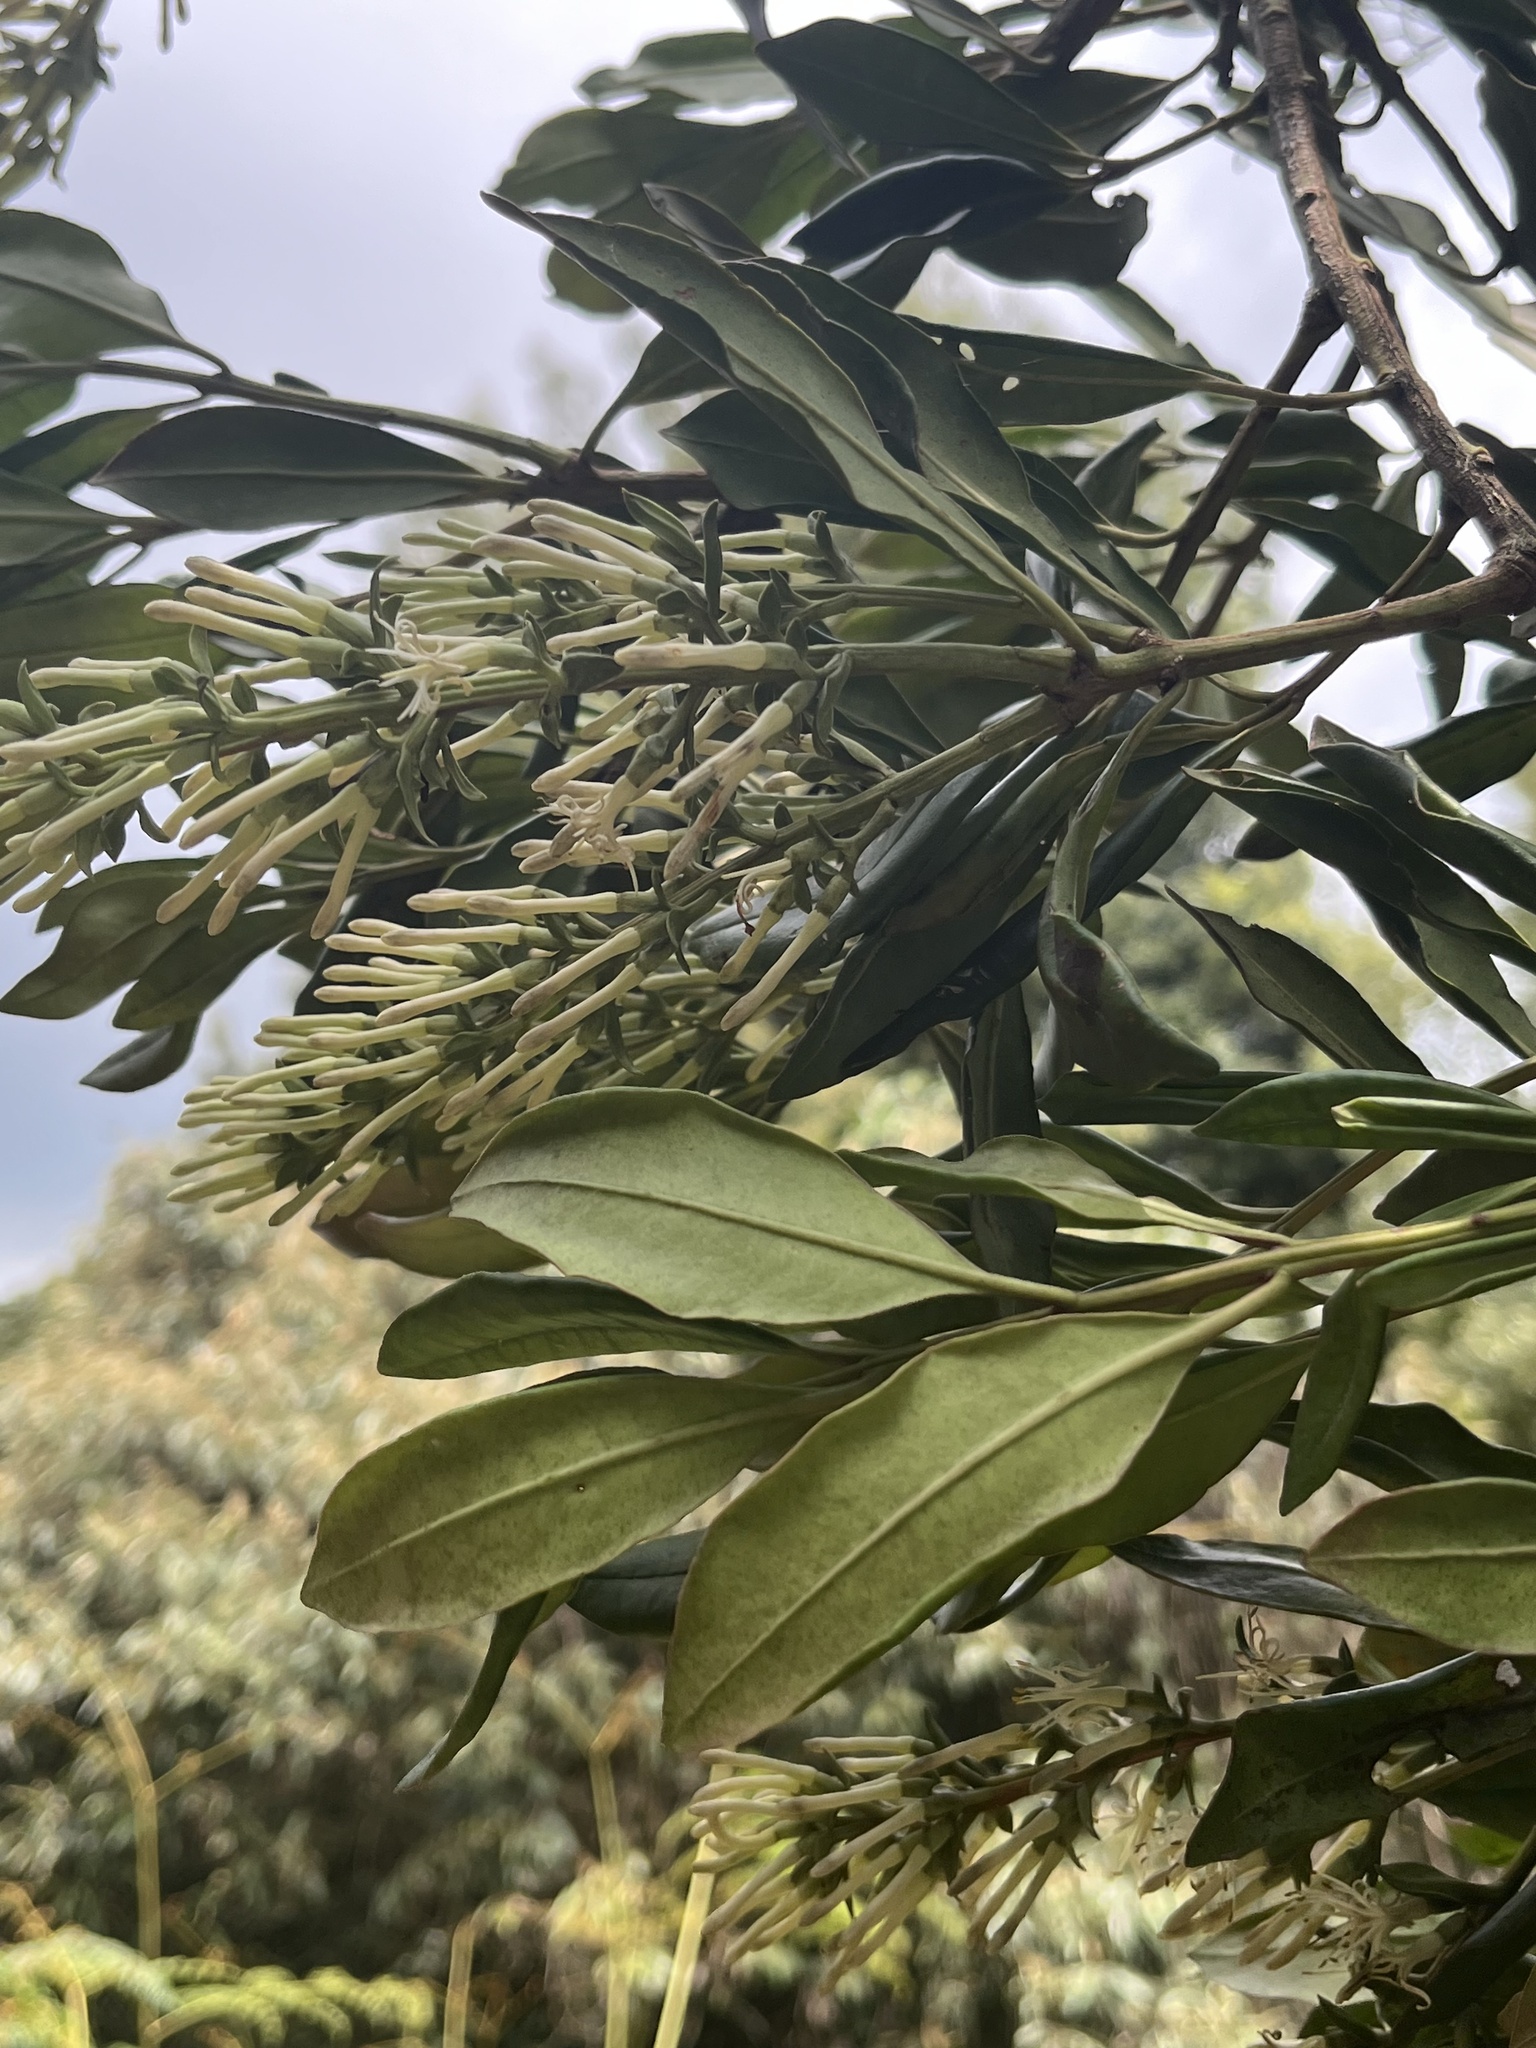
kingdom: Plantae
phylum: Tracheophyta
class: Magnoliopsida
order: Santalales
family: Loranthaceae
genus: Gaiadendron
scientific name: Gaiadendron punctatum
